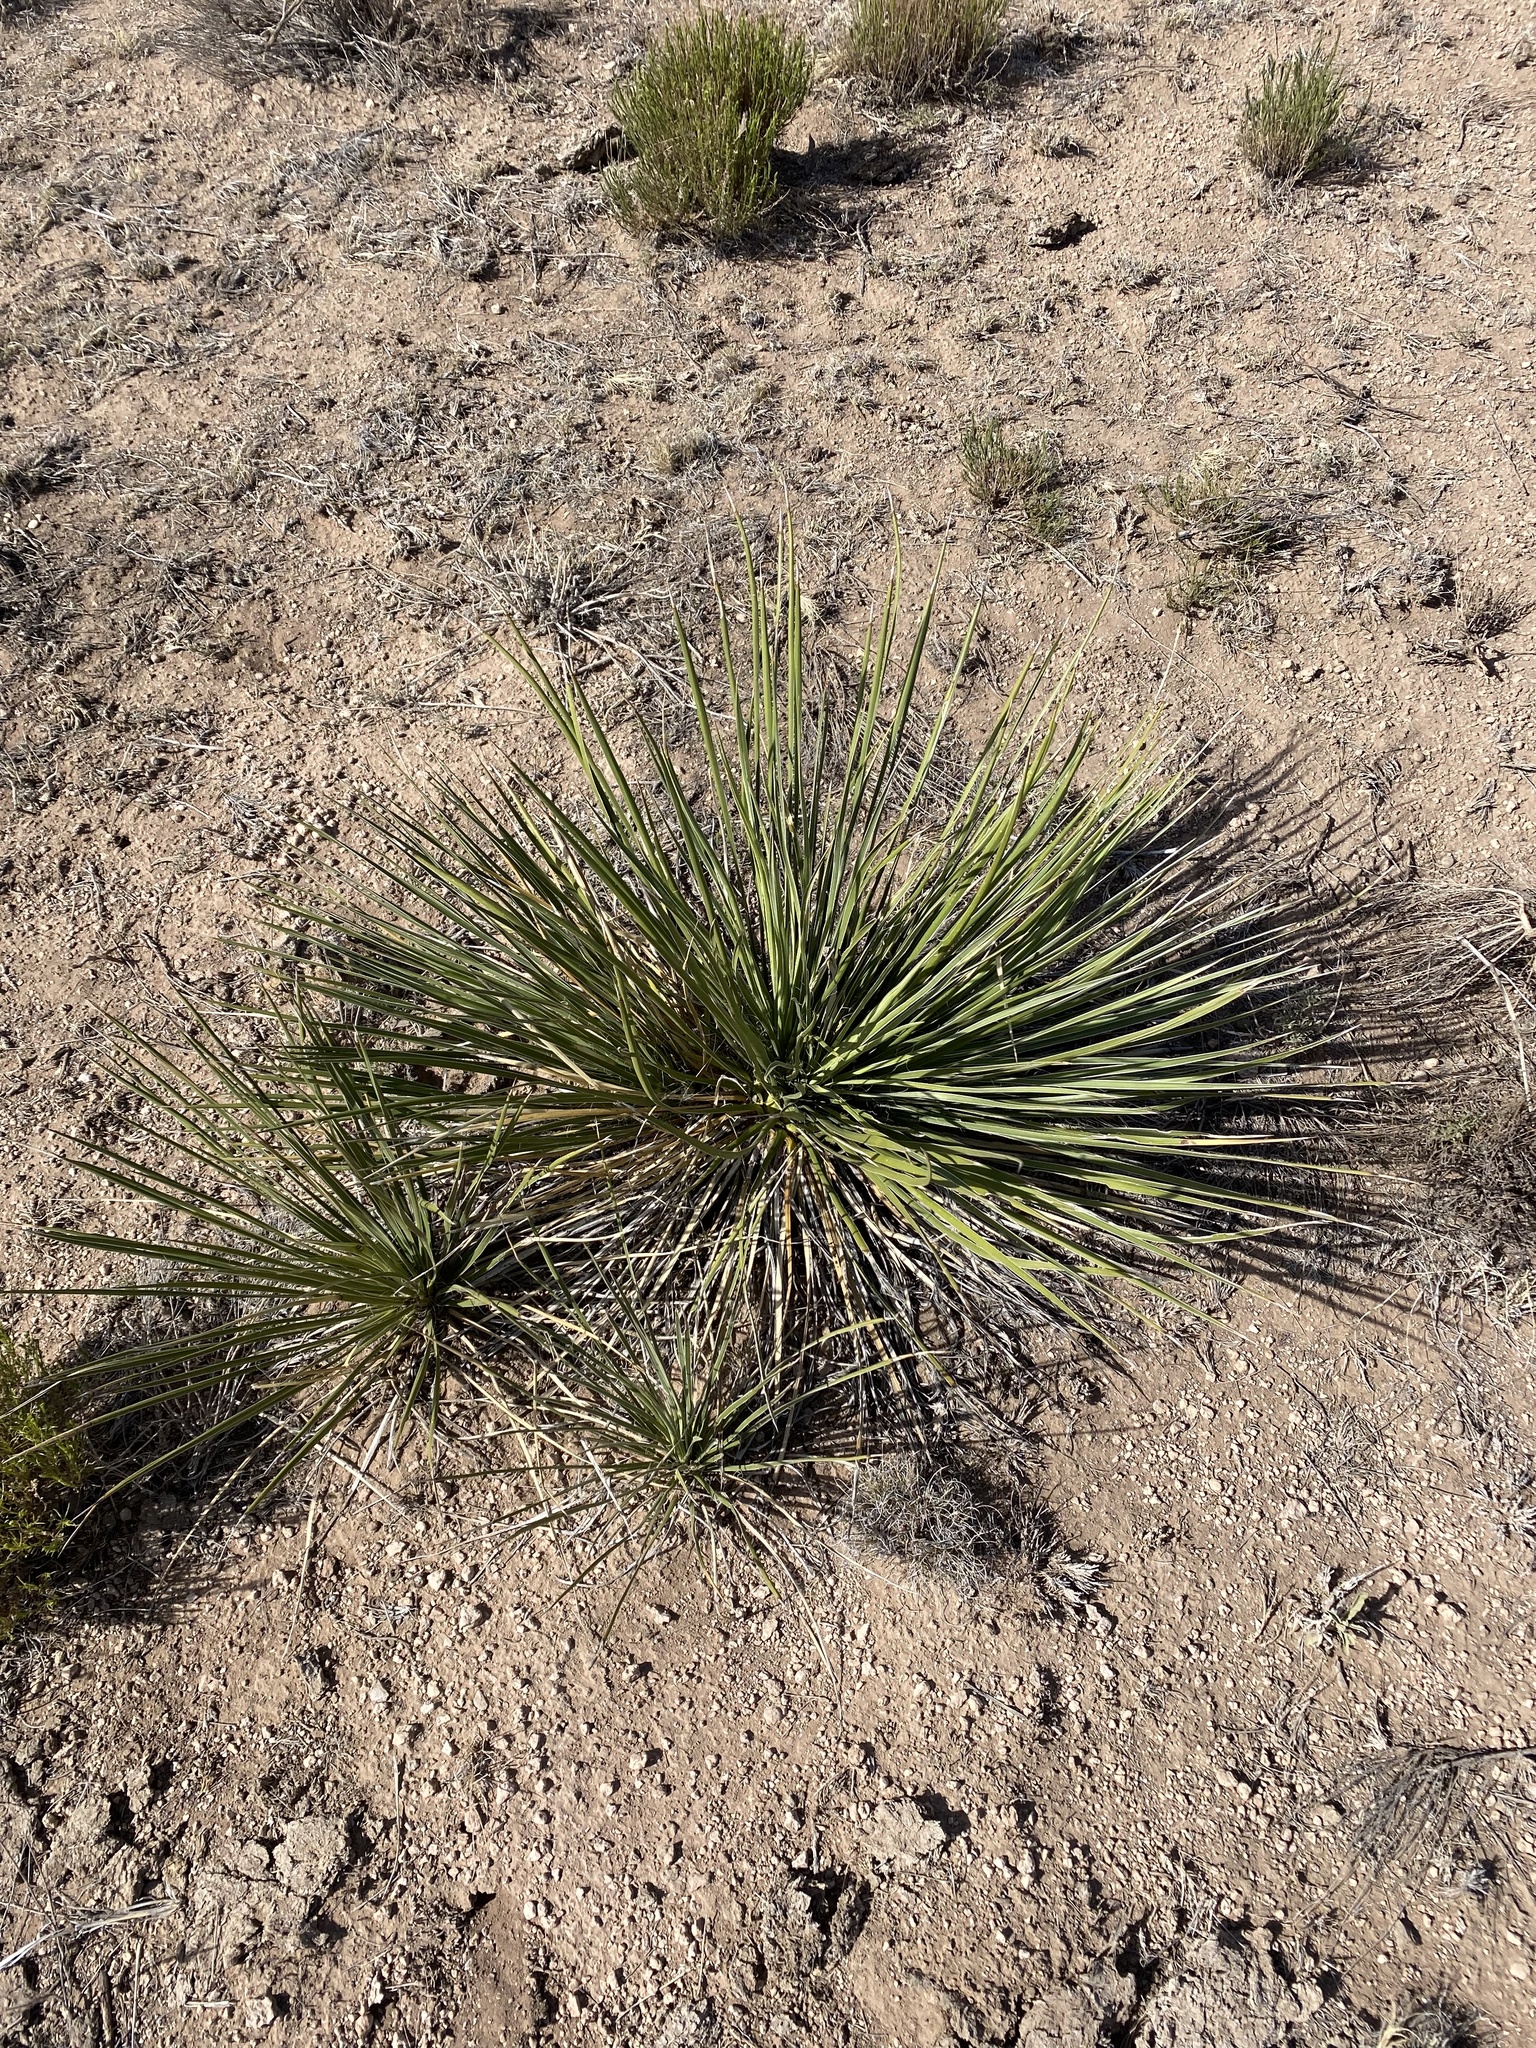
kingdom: Plantae
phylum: Tracheophyta
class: Liliopsida
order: Asparagales
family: Asparagaceae
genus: Yucca
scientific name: Yucca glauca
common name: Great plains yucca
